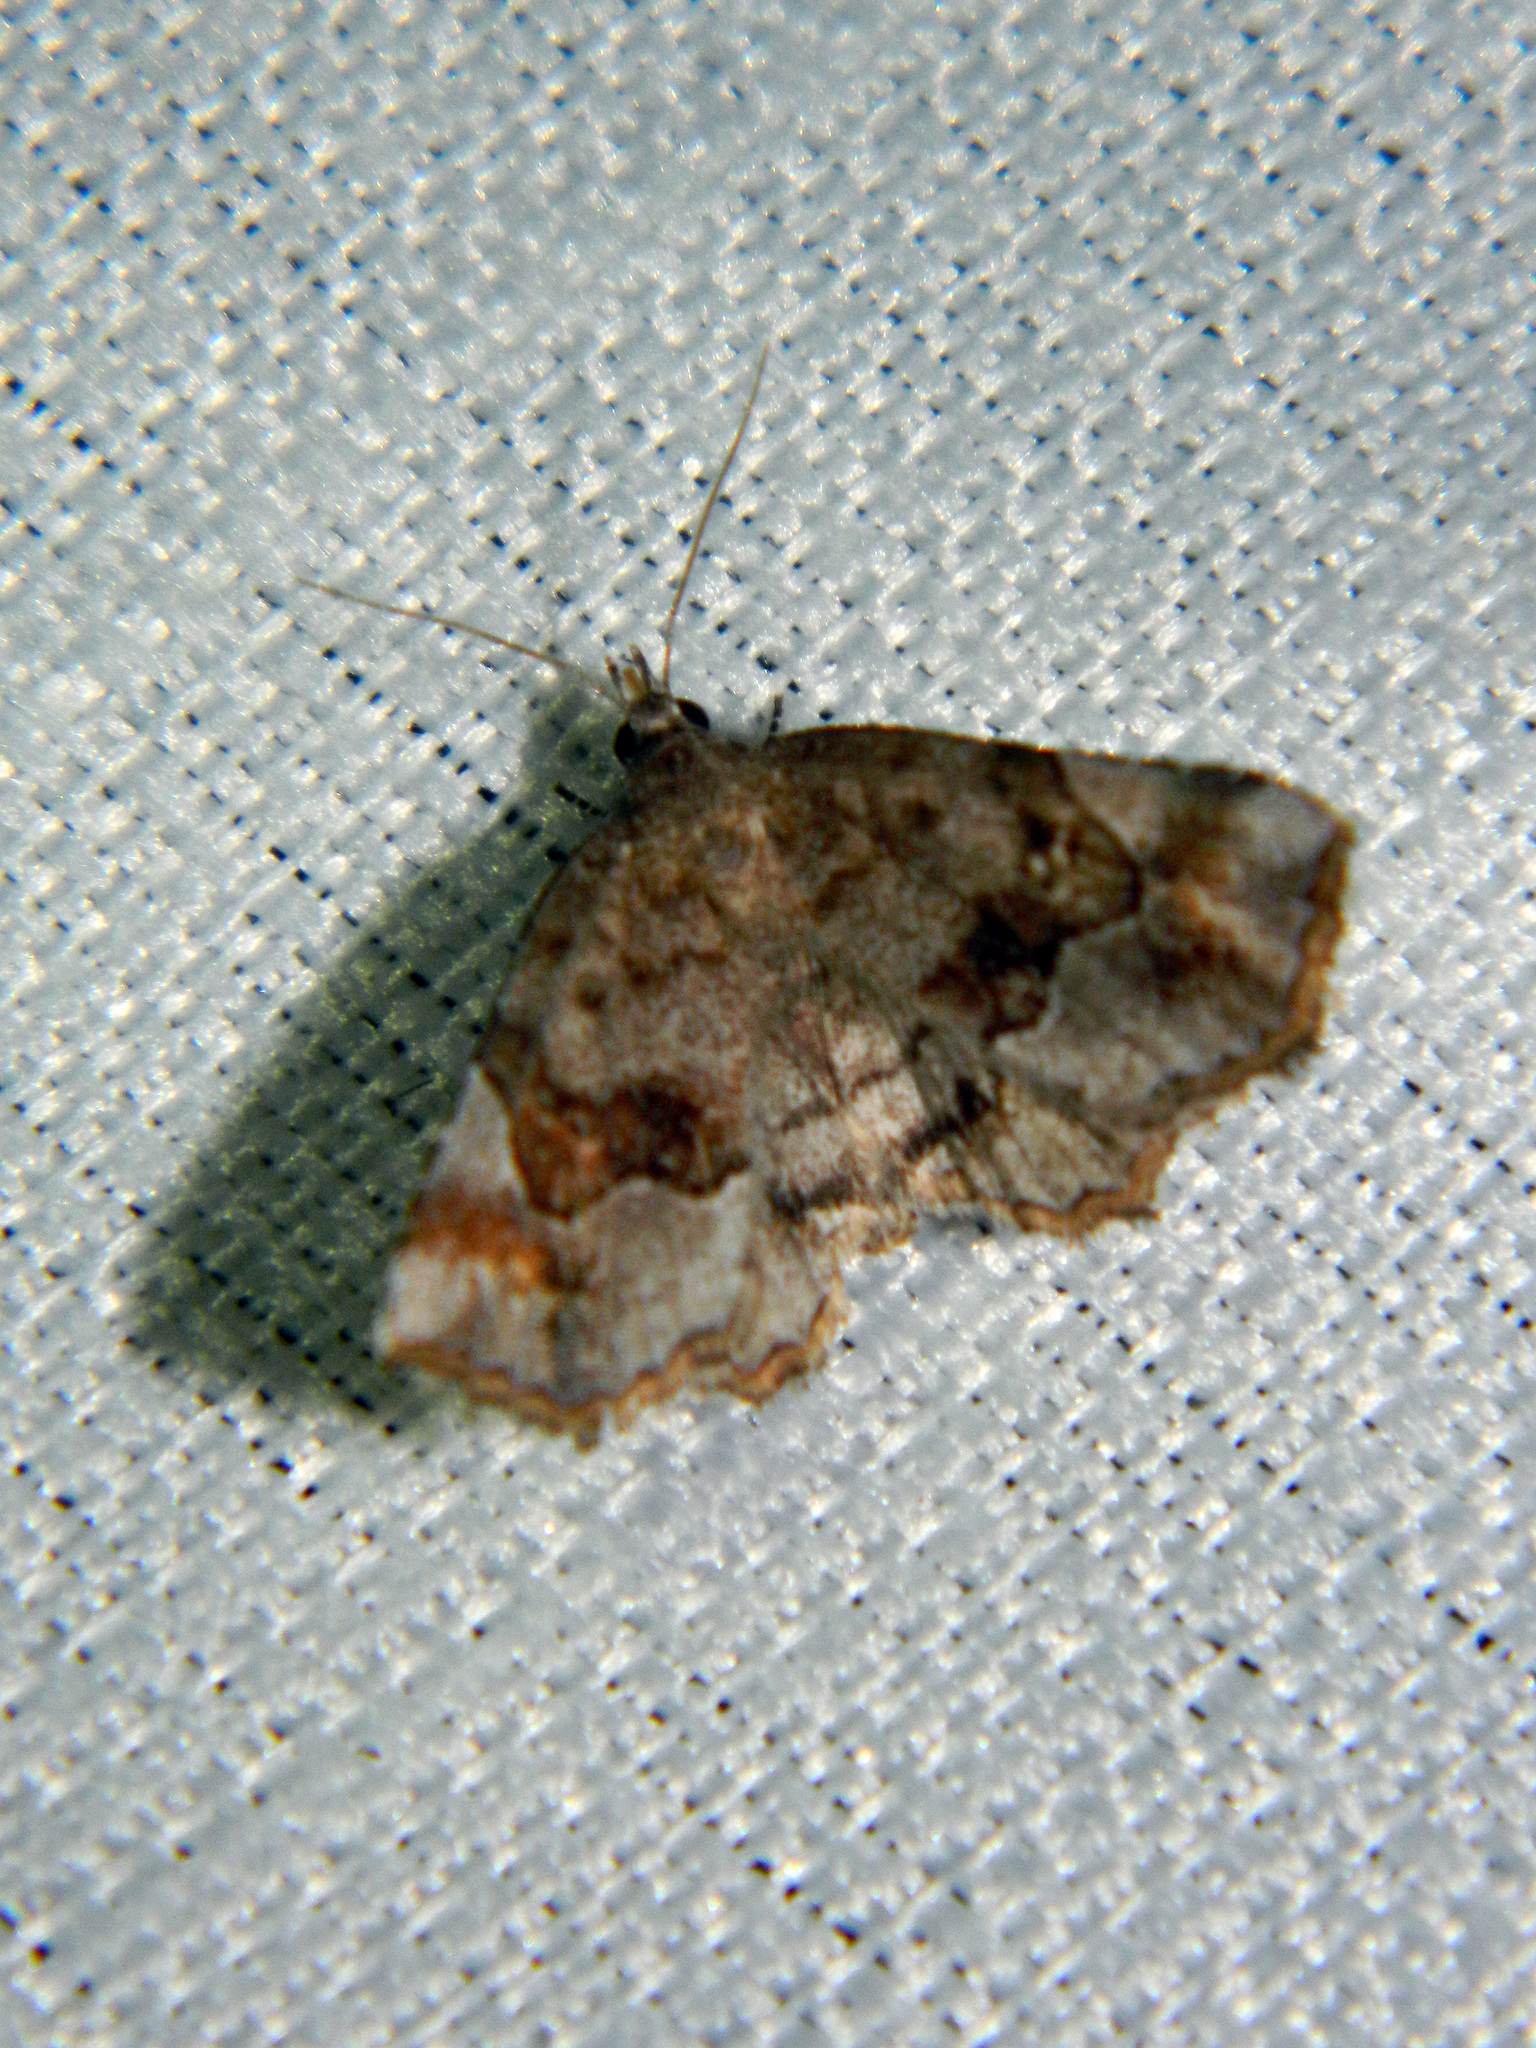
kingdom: Animalia
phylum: Arthropoda
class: Insecta
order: Lepidoptera
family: Erebidae
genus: Pangrapta
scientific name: Pangrapta decoralis
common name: Decorated owlet
